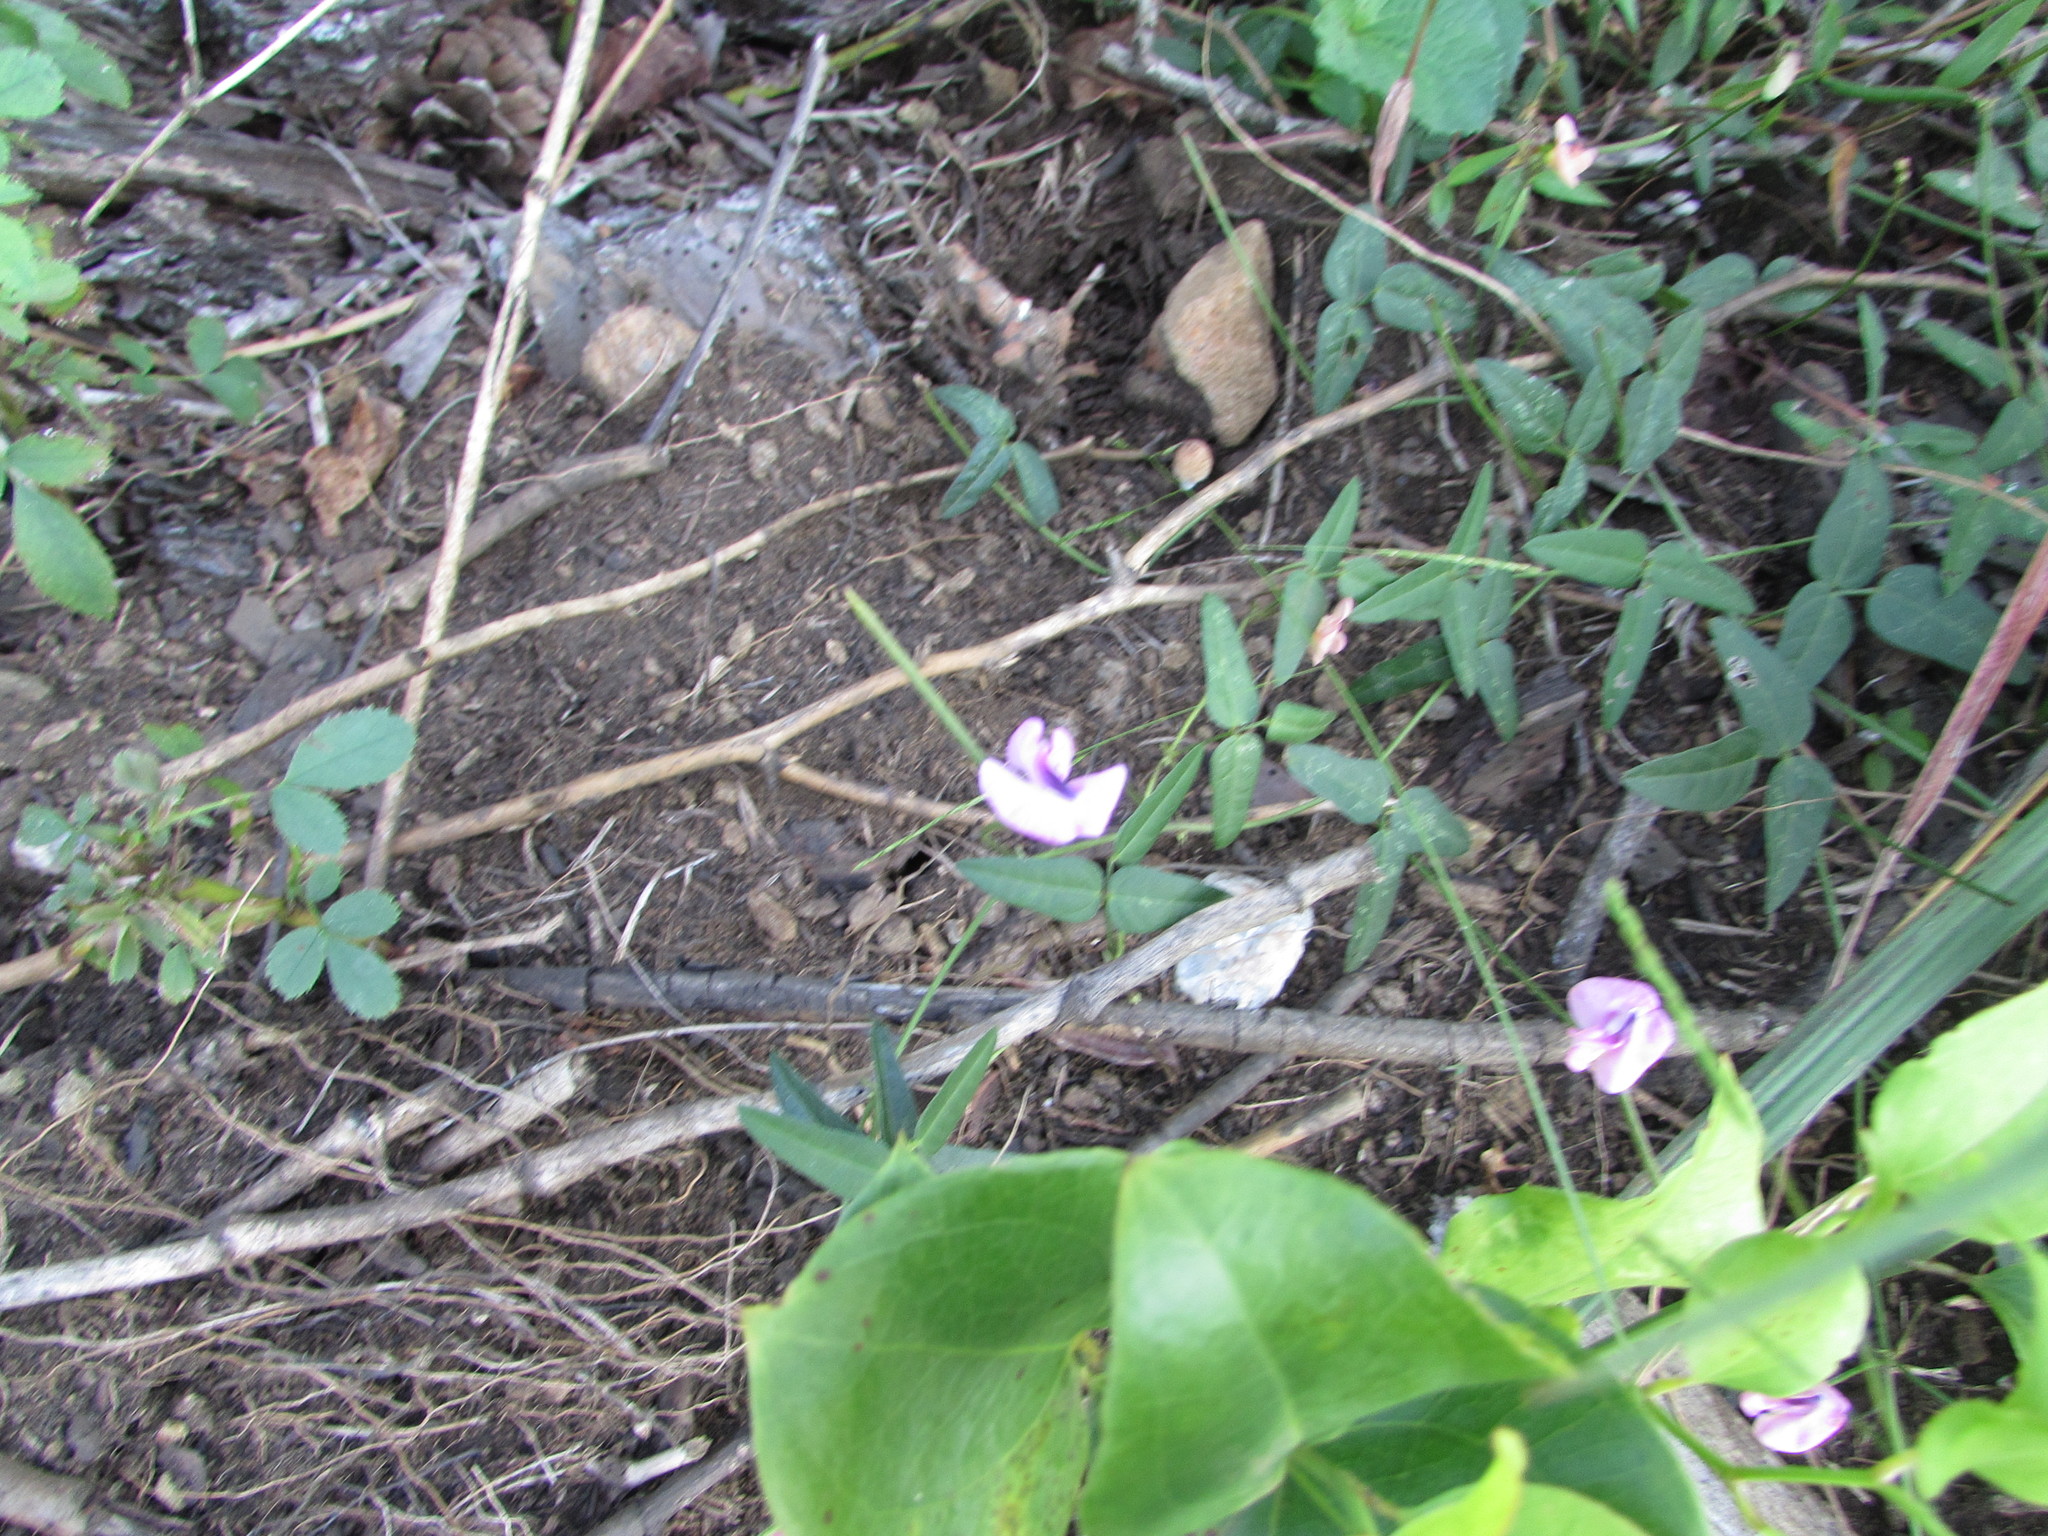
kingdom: Plantae
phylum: Tracheophyta
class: Magnoliopsida
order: Fabales
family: Fabaceae
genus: Strophostyles
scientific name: Strophostyles umbellata
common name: Perennial wild bean
